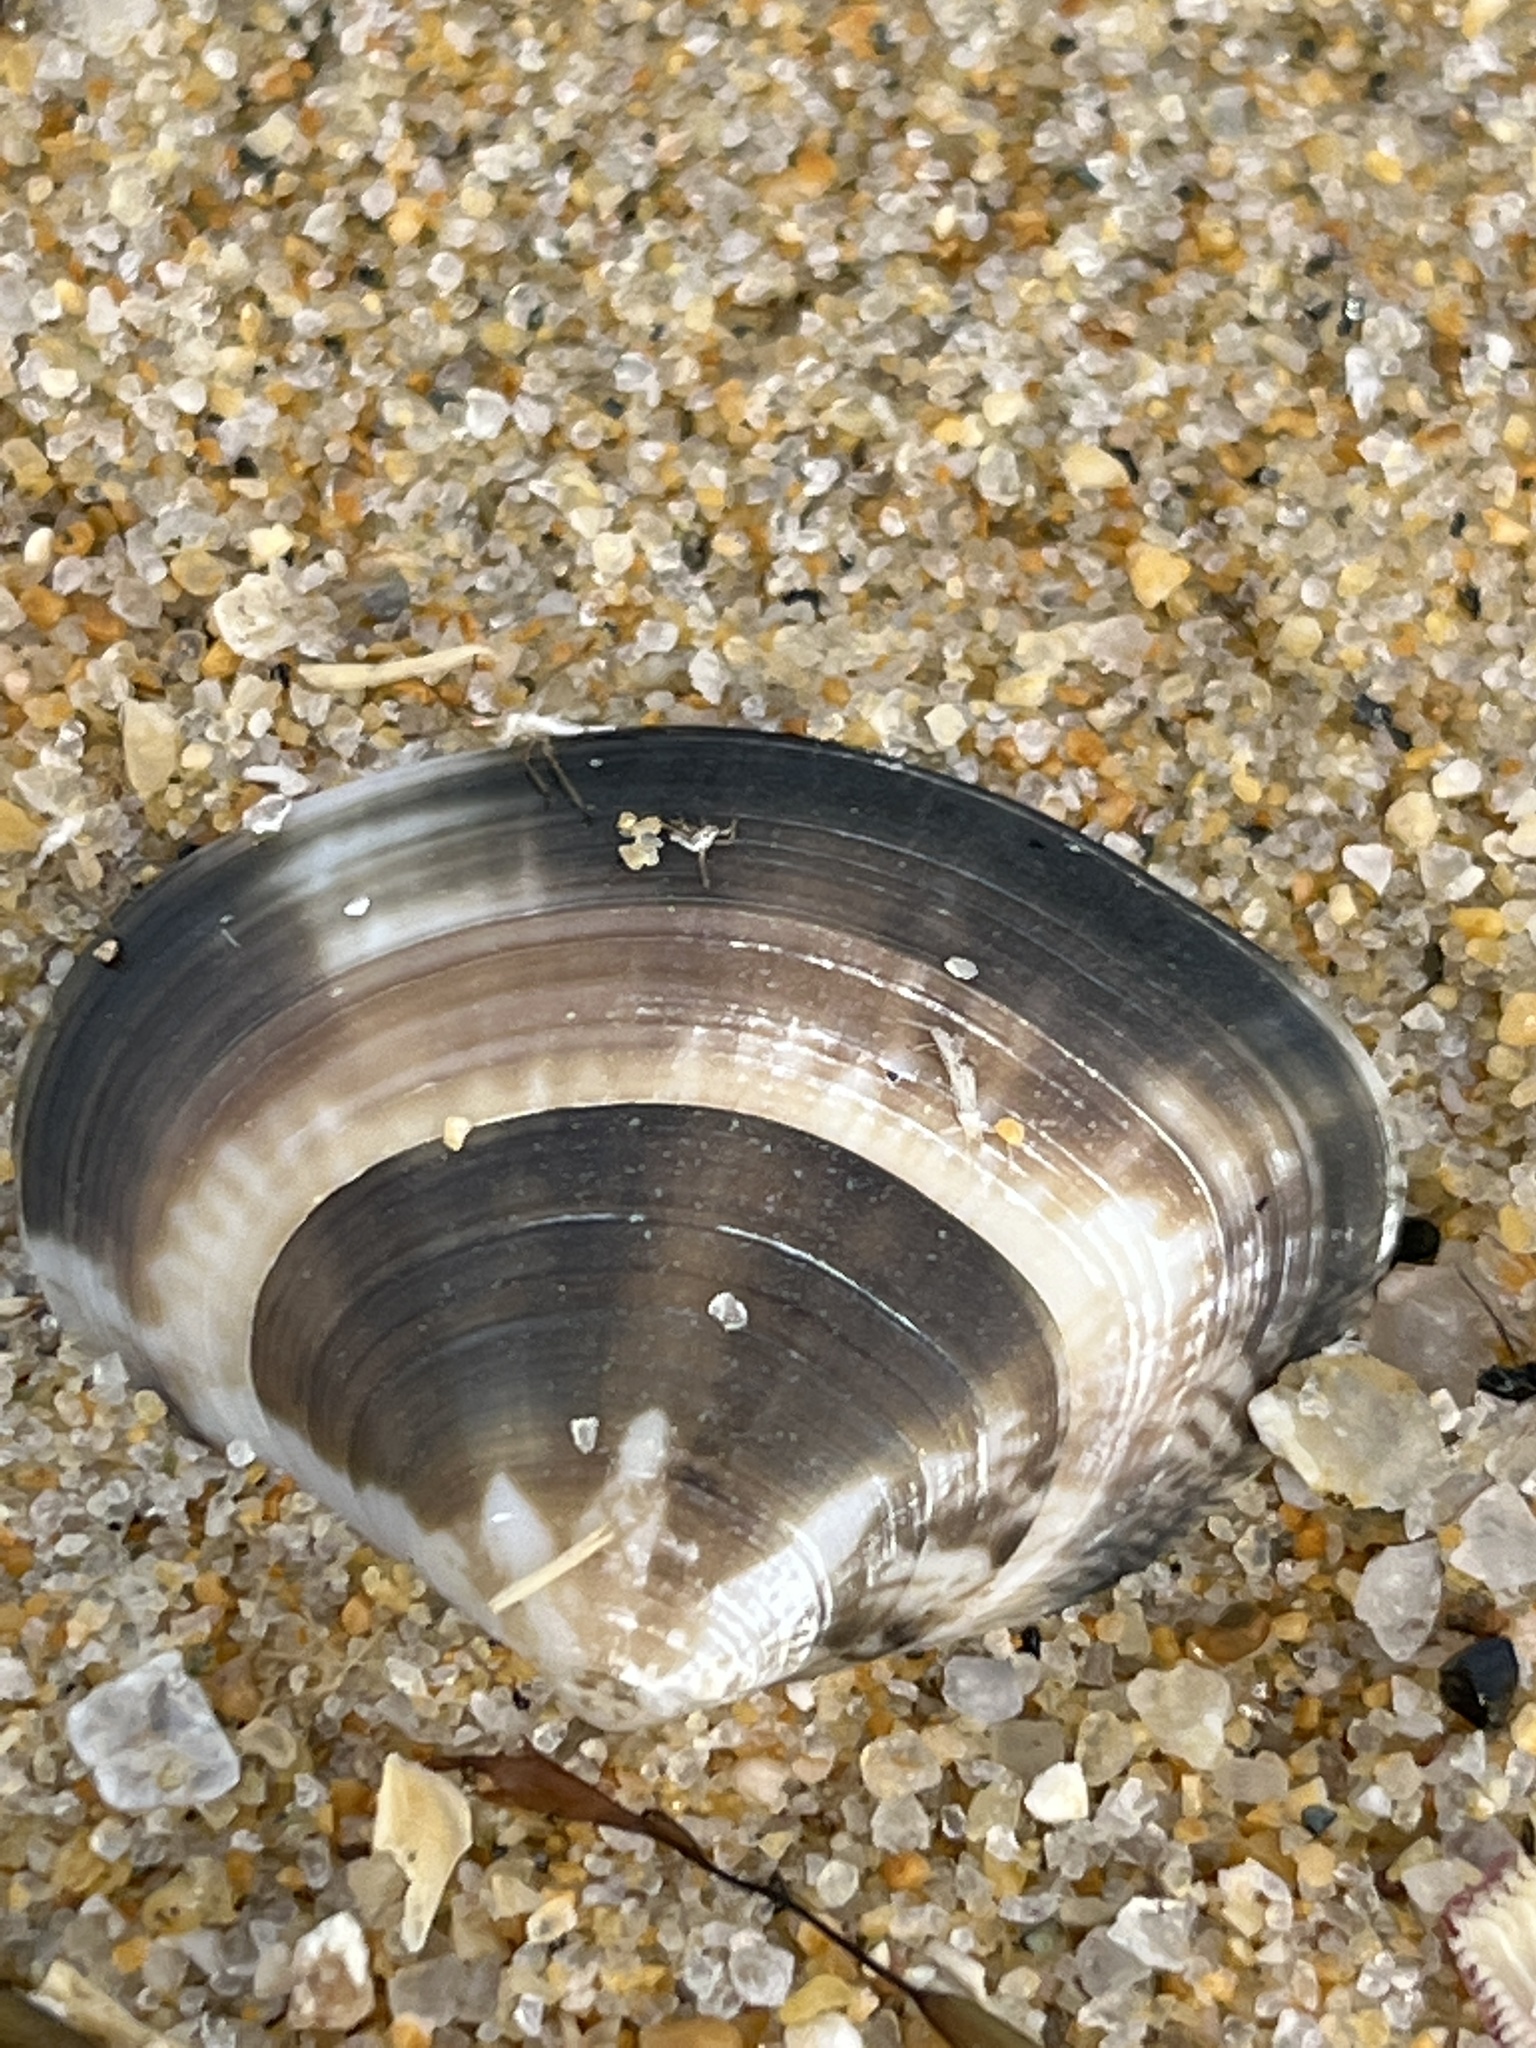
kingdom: Animalia
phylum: Mollusca
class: Bivalvia
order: Venerida
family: Veneridae
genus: Macridiscus
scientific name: Macridiscus aequilatera
